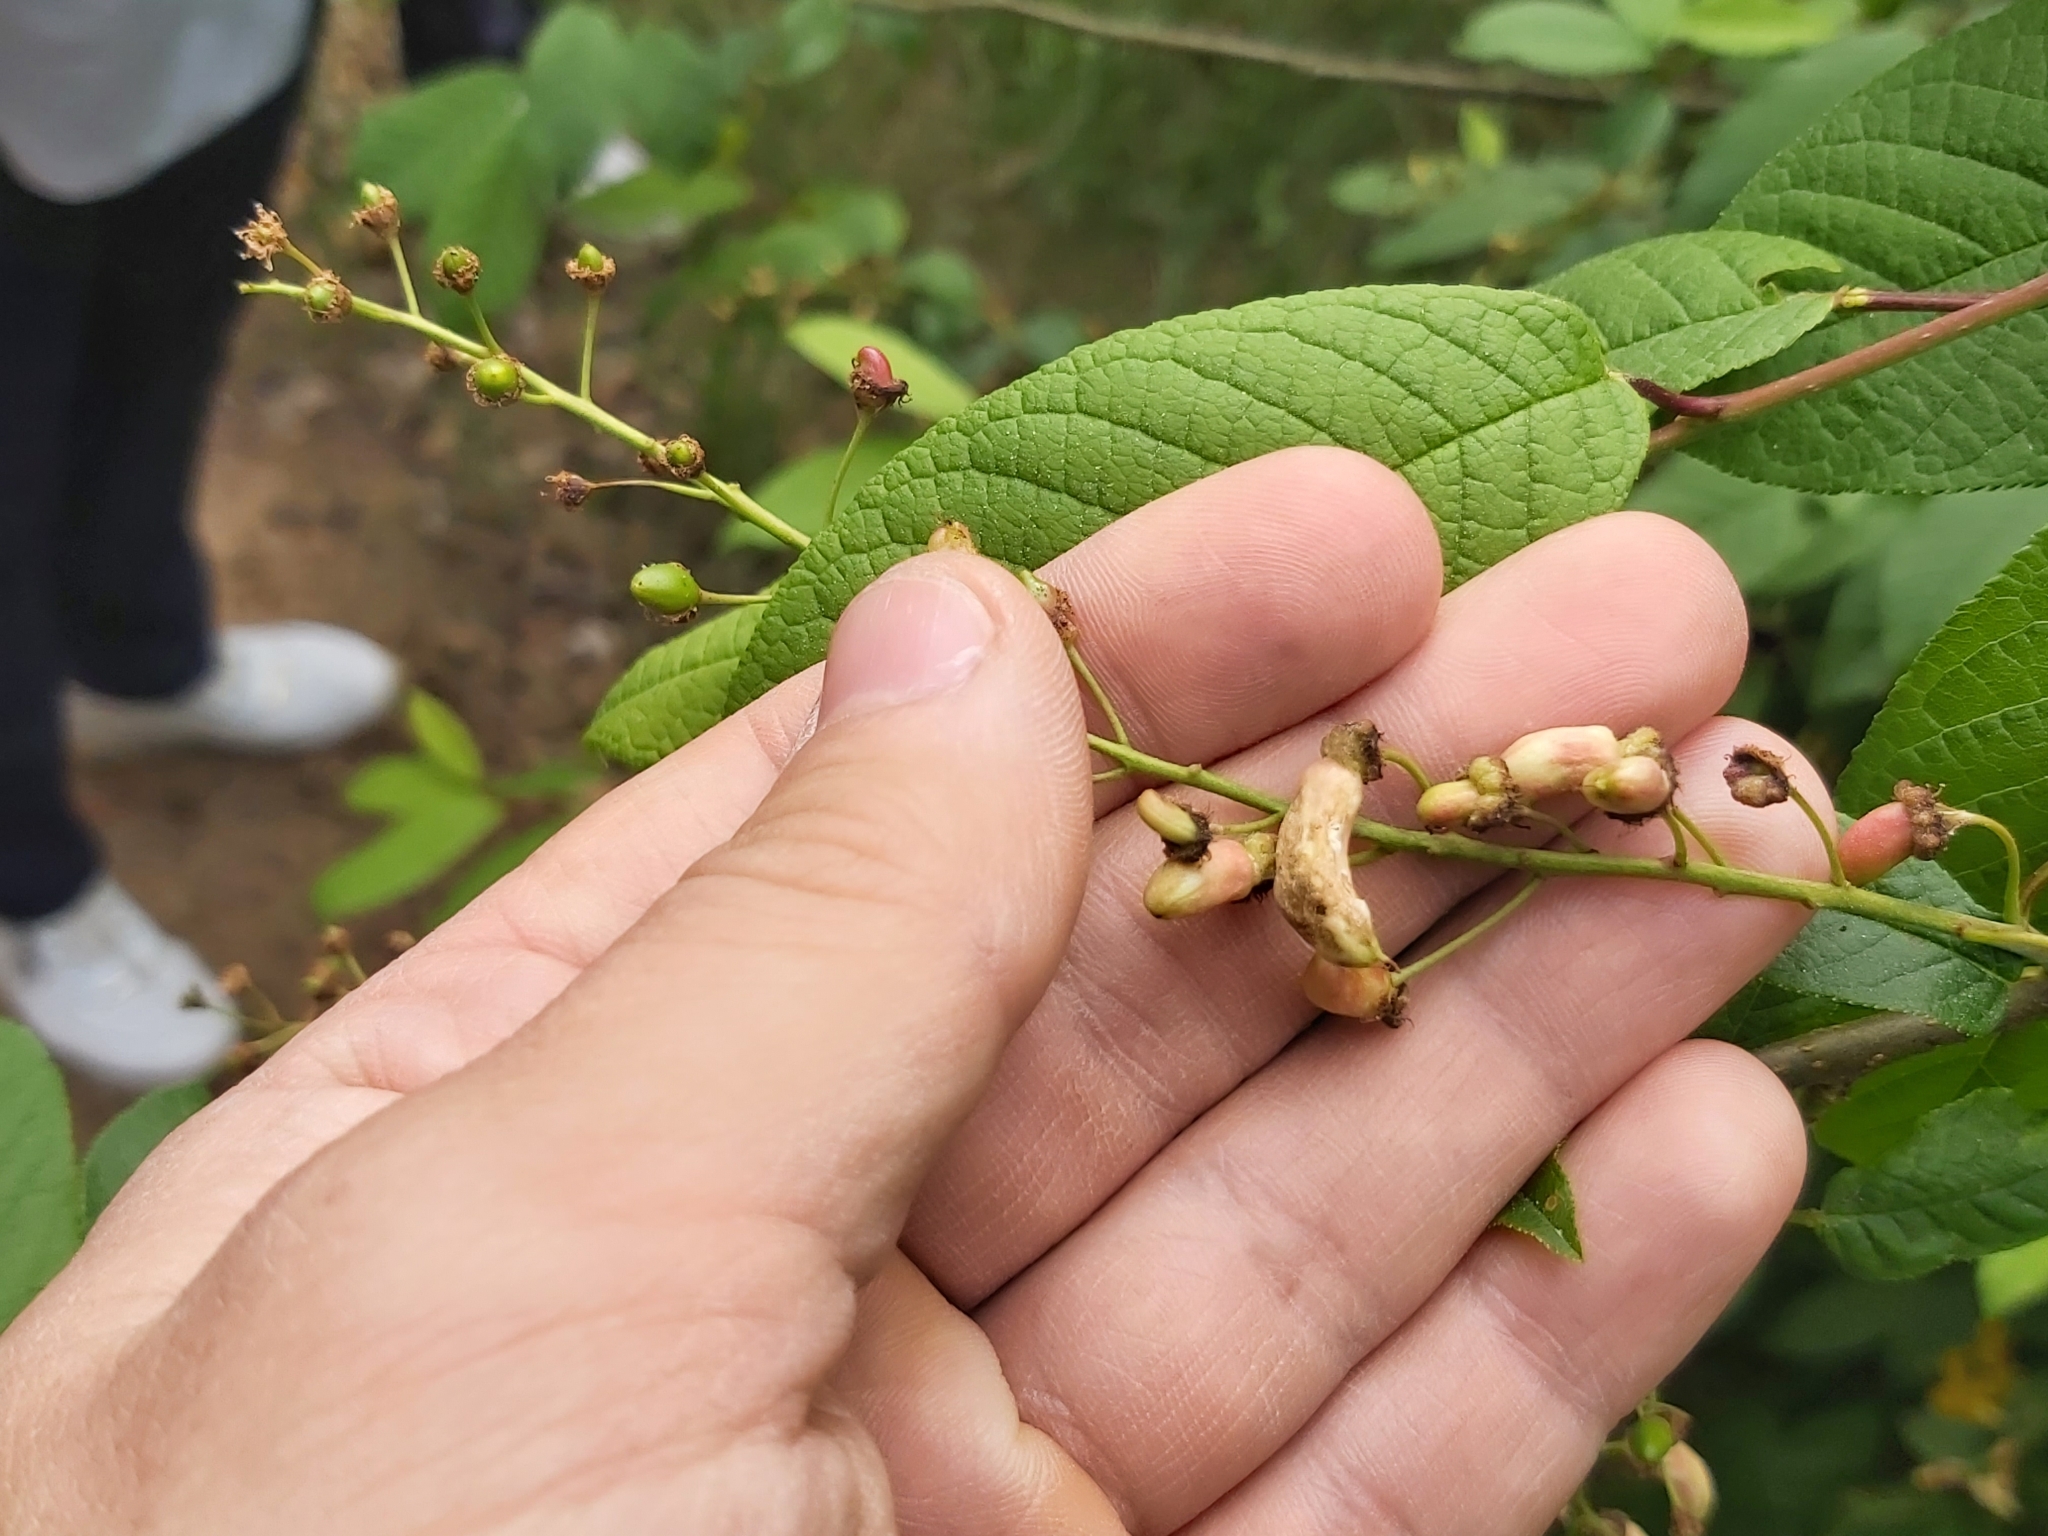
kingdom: Fungi
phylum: Ascomycota
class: Taphrinomycetes
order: Taphrinales
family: Taphrinaceae
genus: Taphrina
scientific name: Taphrina padi
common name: Bird cherry pocket
